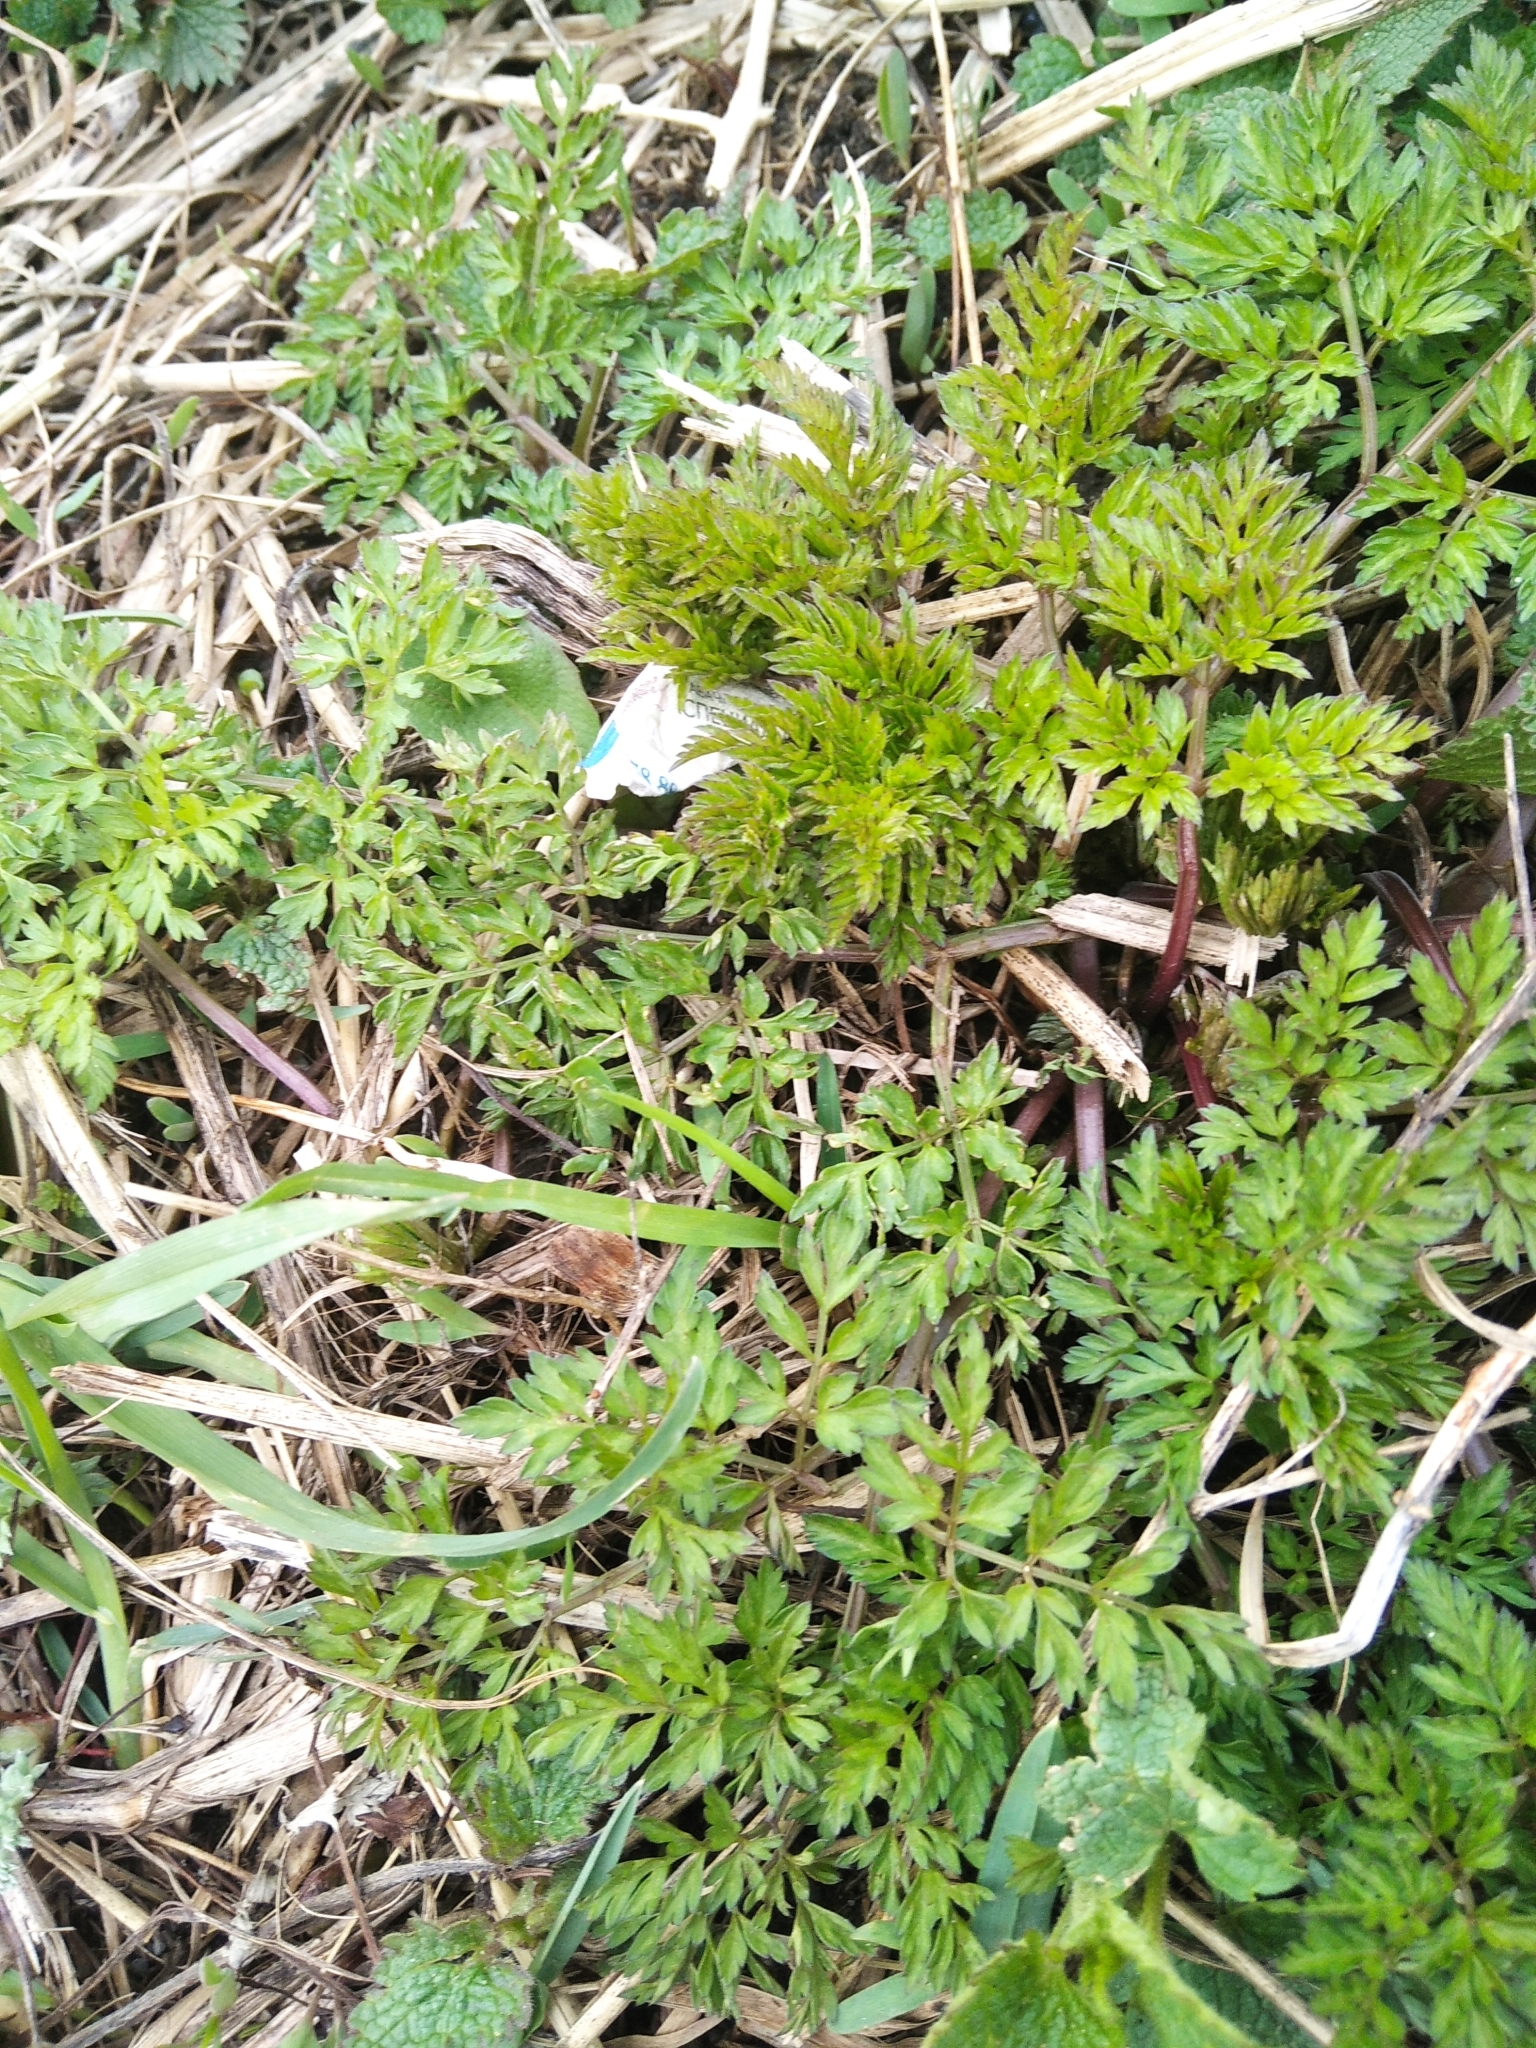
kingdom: Plantae
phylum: Tracheophyta
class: Magnoliopsida
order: Apiales
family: Apiaceae
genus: Anthriscus
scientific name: Anthriscus sylvestris
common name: Cow parsley
